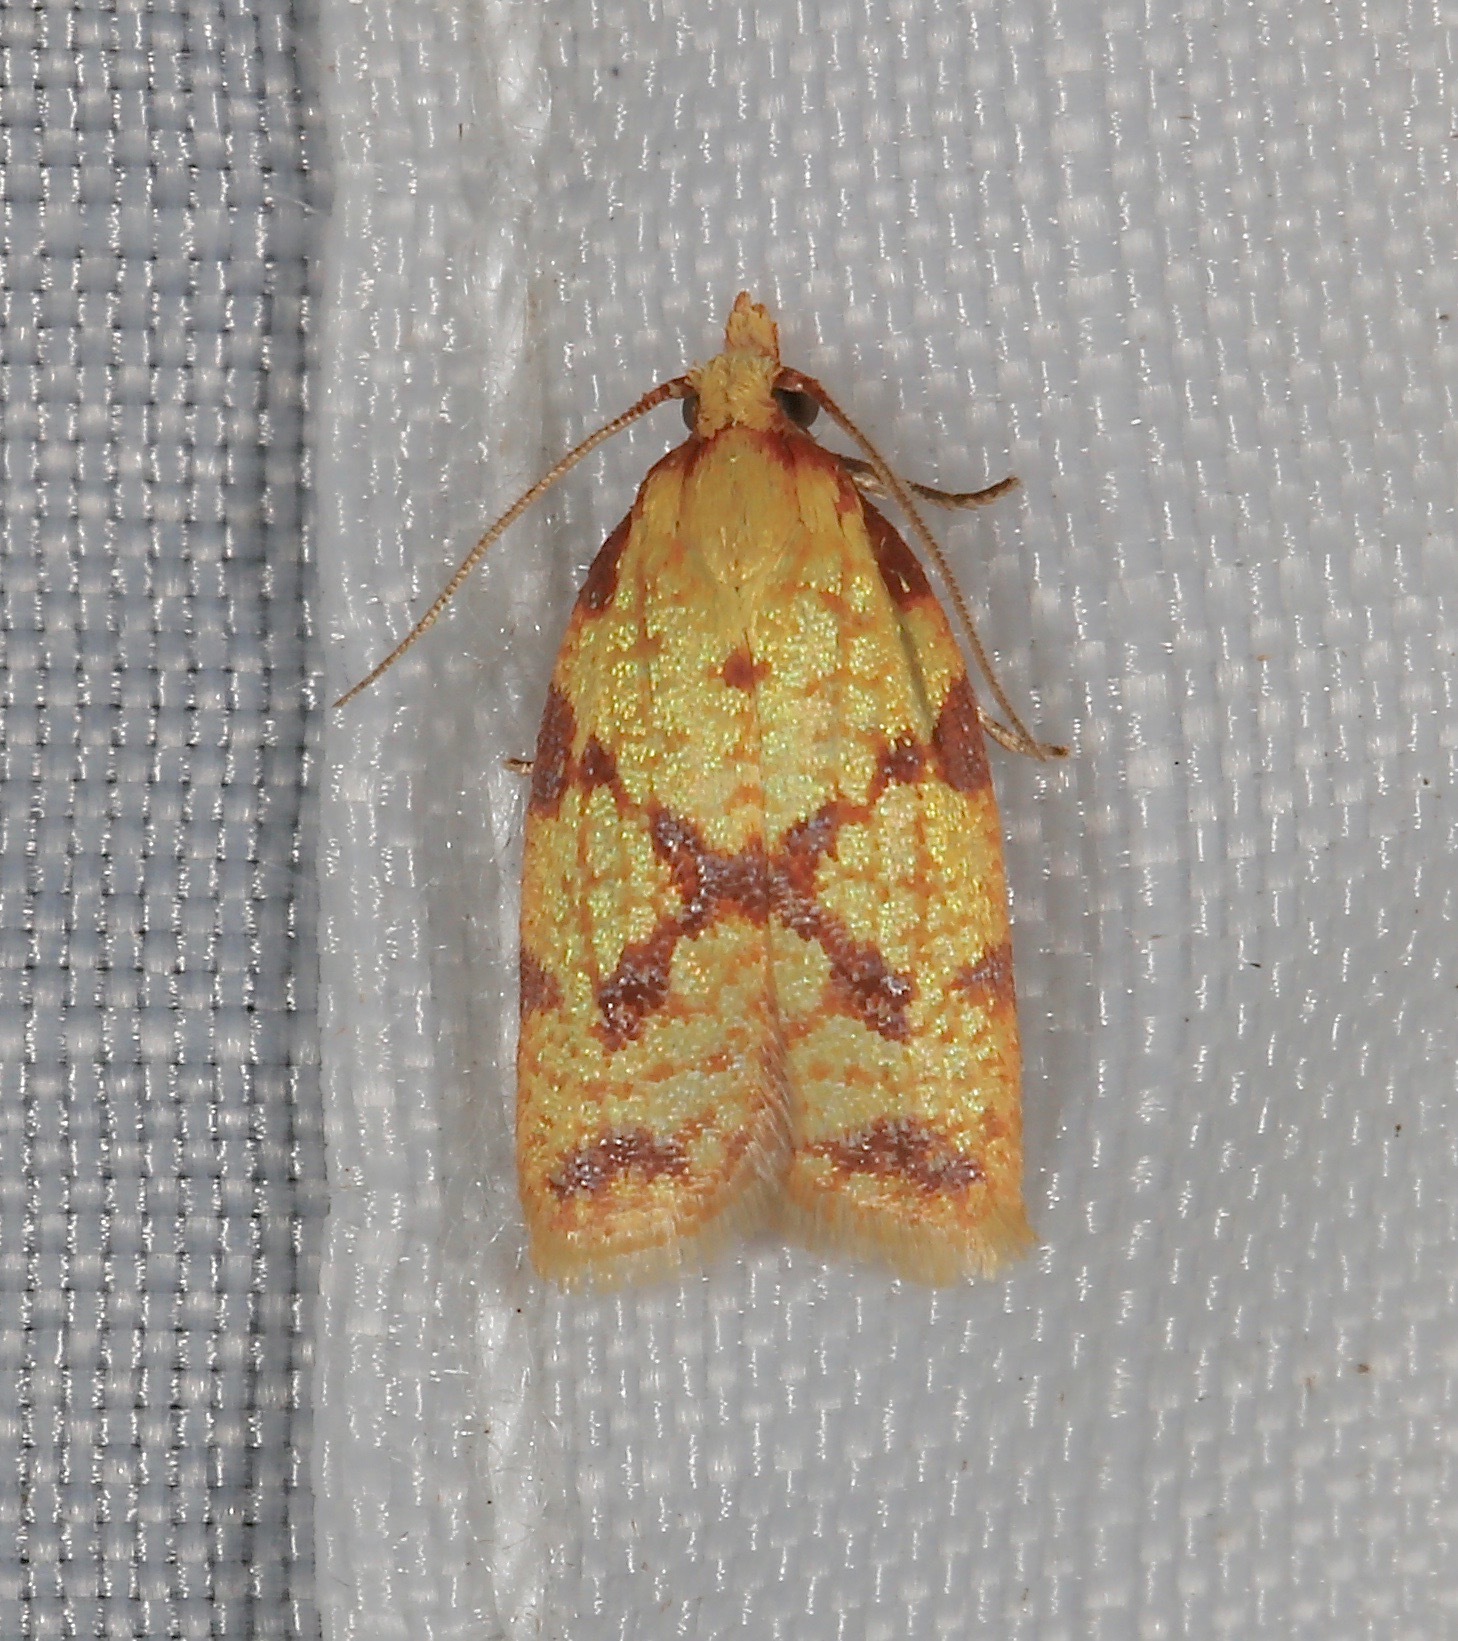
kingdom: Animalia
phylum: Arthropoda
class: Insecta
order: Lepidoptera
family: Tortricidae
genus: Sparganothis
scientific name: Sparganothis sulfureana
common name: Sparganothis fruitworm moth
